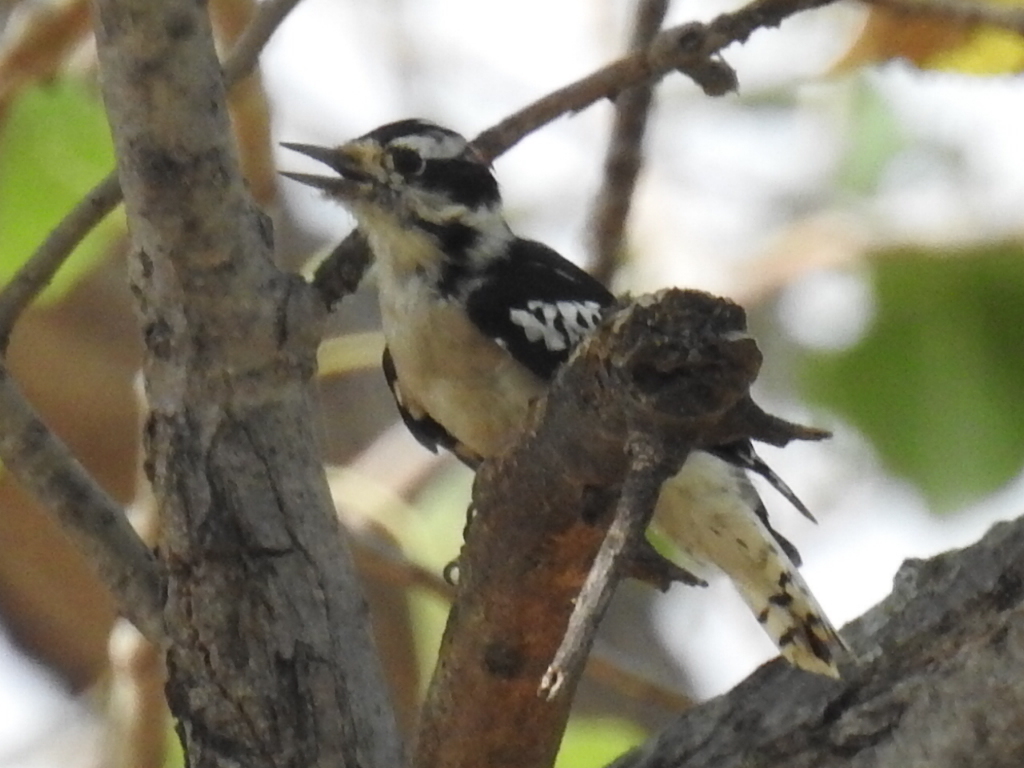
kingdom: Animalia
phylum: Chordata
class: Aves
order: Piciformes
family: Picidae
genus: Dryobates
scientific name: Dryobates pubescens
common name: Downy woodpecker
